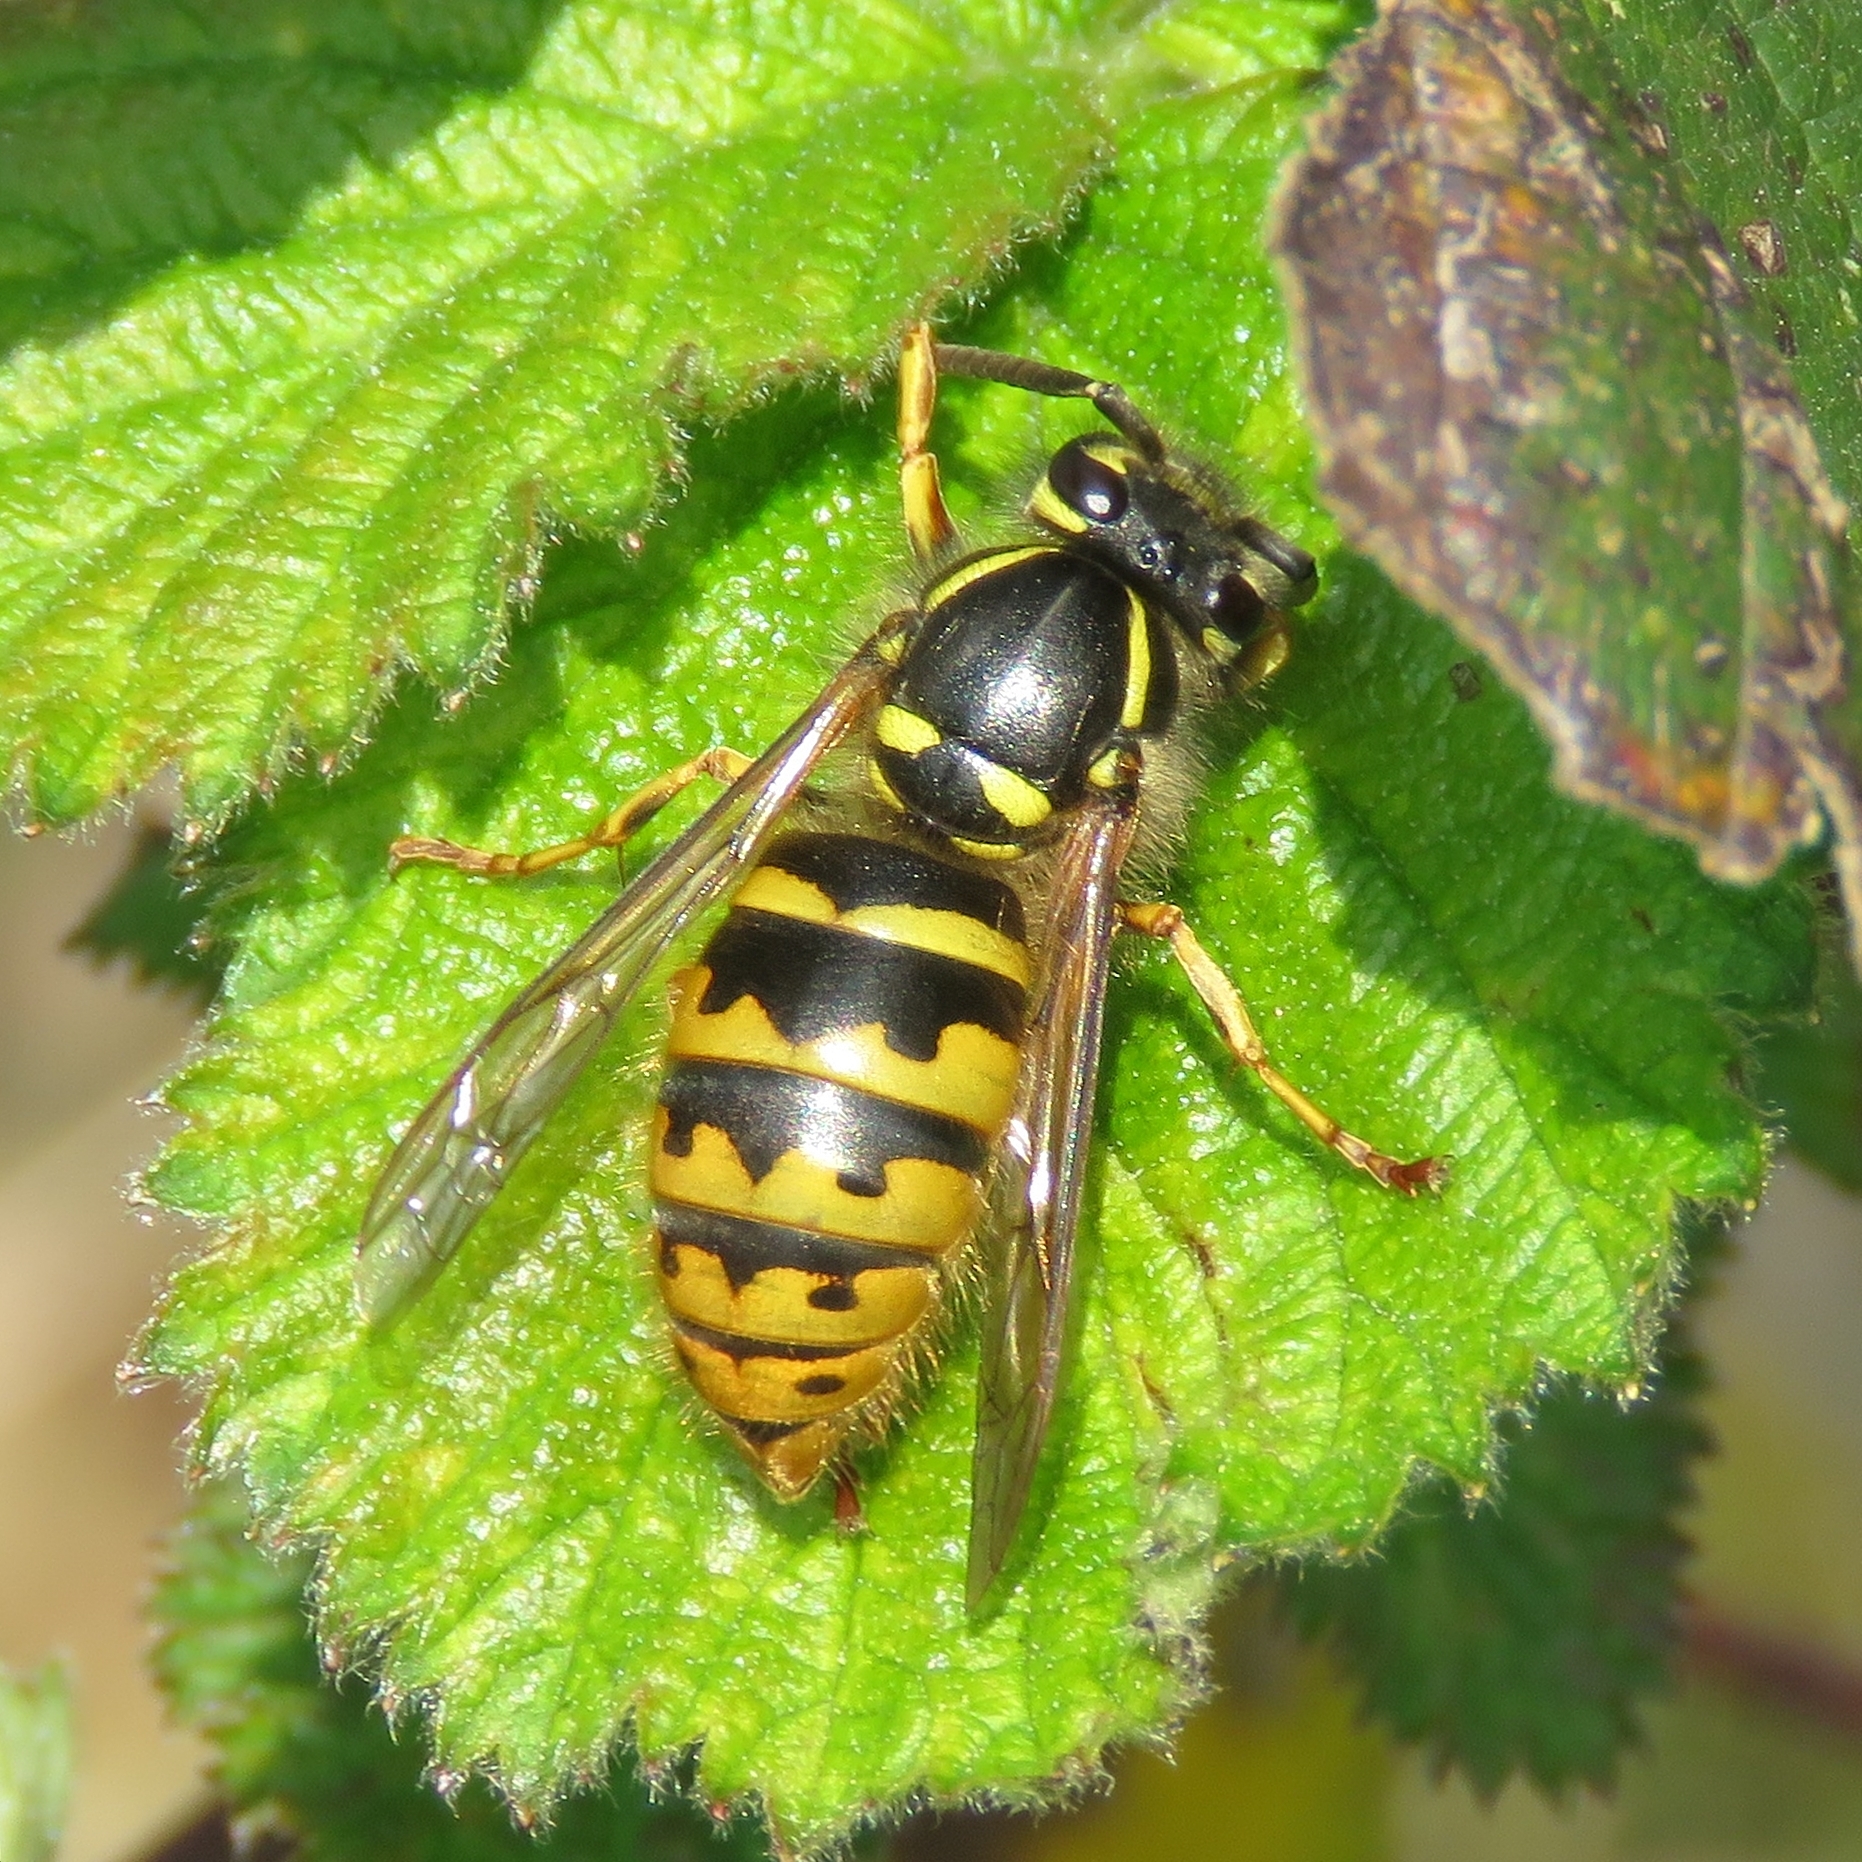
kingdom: Animalia
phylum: Arthropoda
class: Insecta
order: Hymenoptera
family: Vespidae
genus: Vespula
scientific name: Vespula vulgaris
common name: Common wasp
